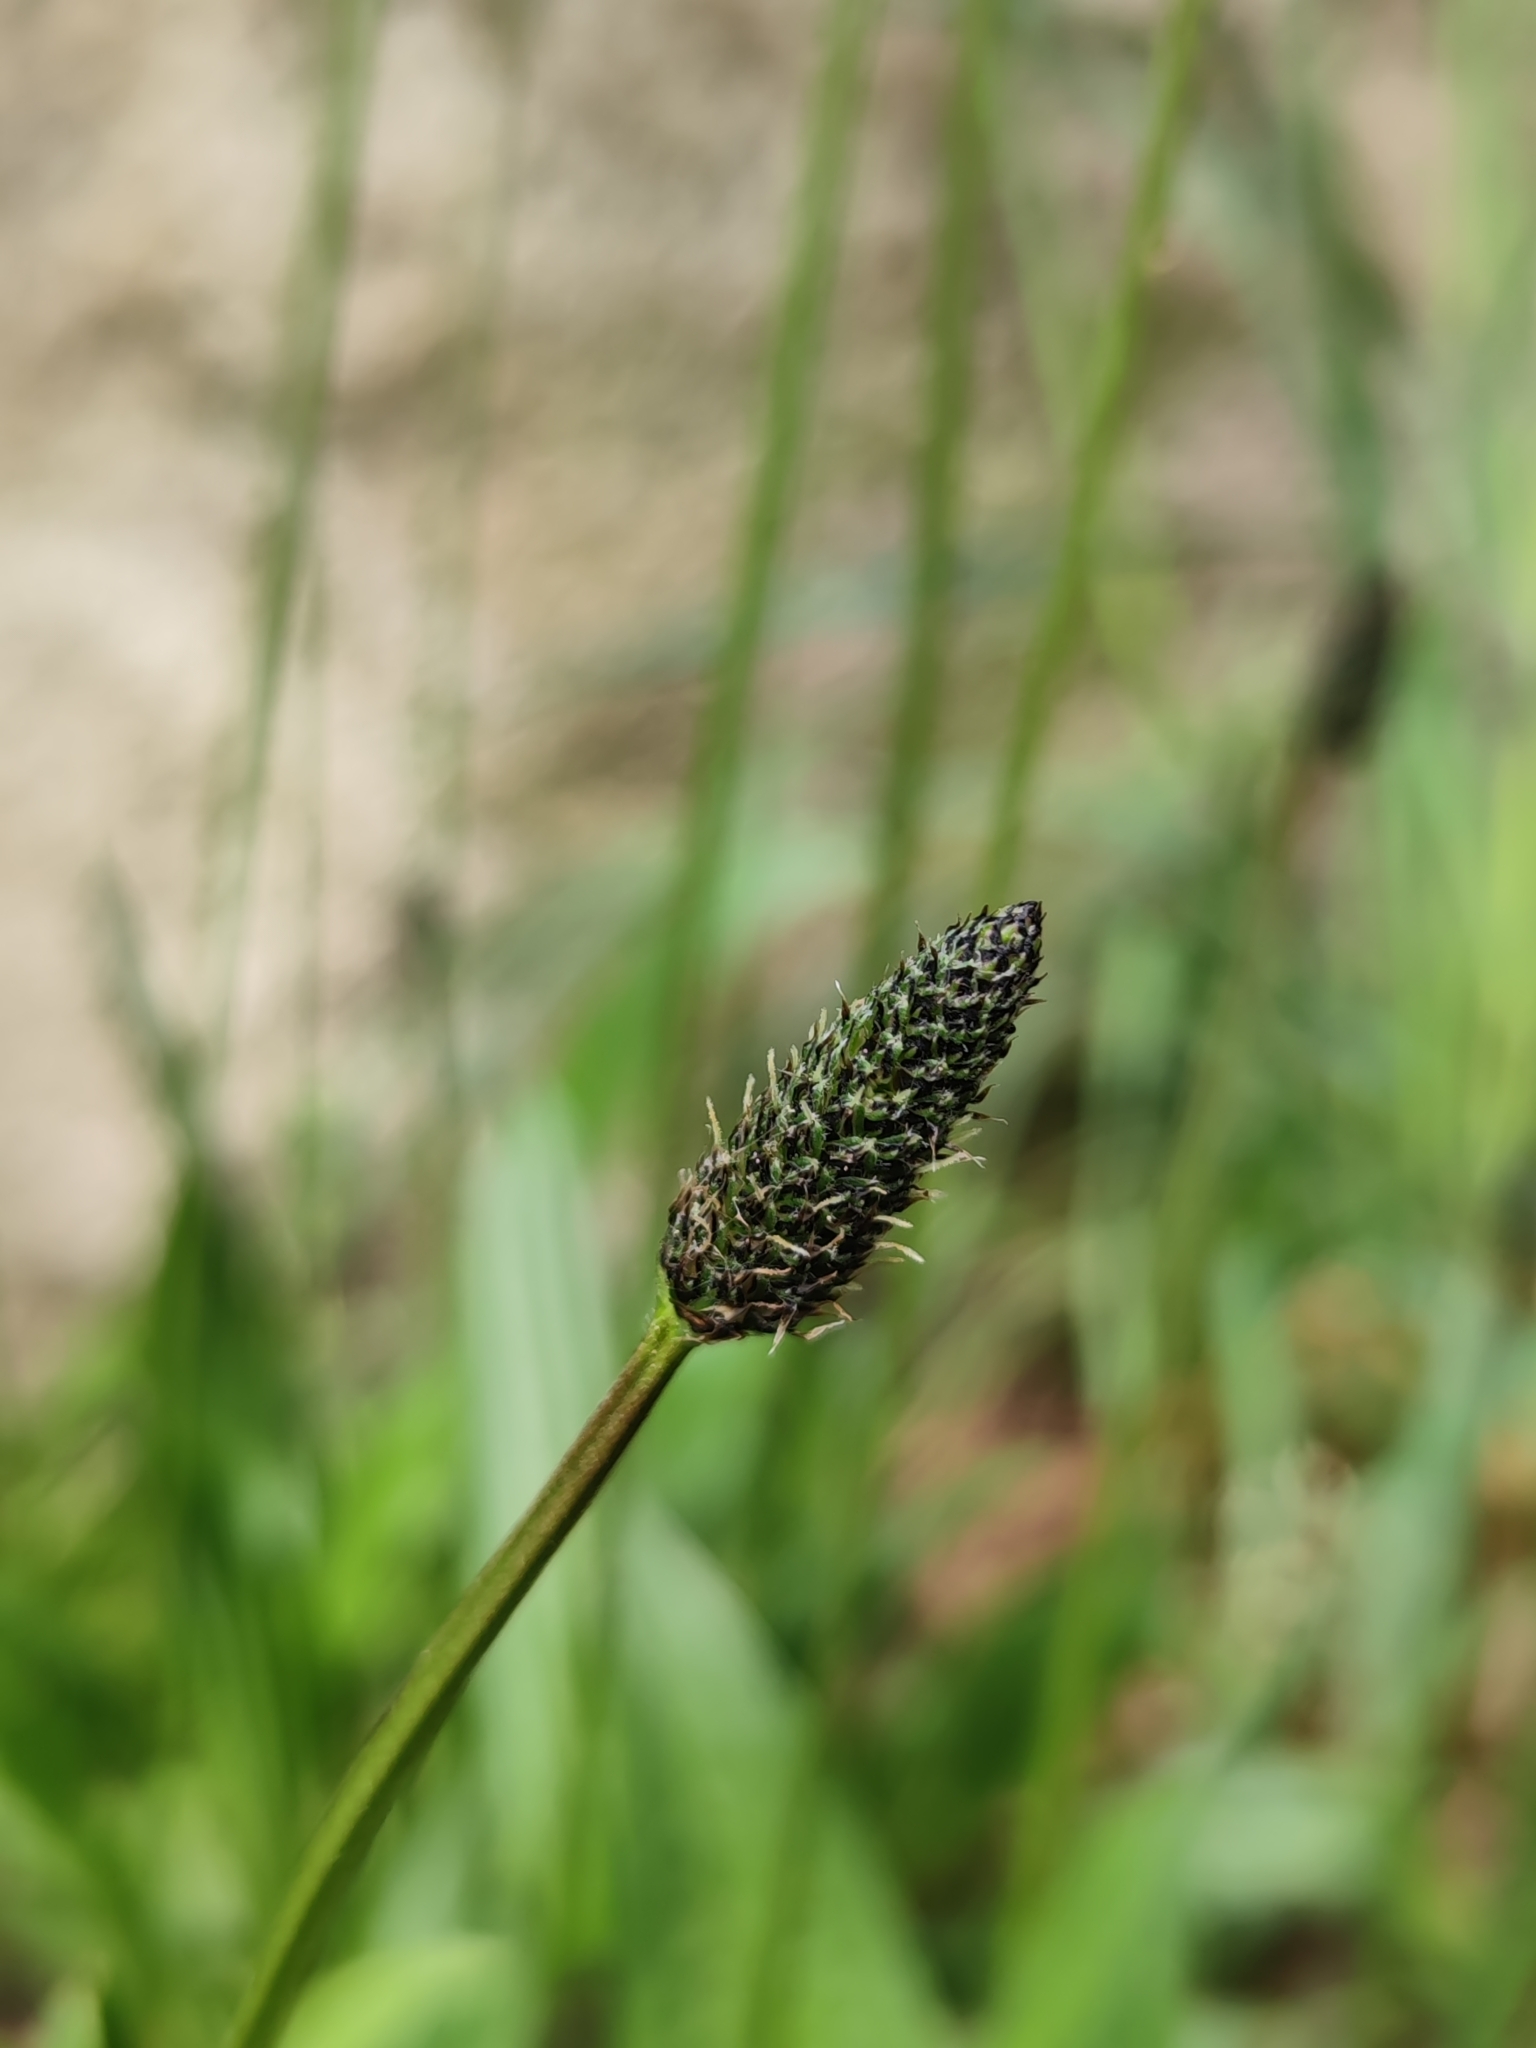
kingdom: Plantae
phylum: Tracheophyta
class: Magnoliopsida
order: Lamiales
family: Plantaginaceae
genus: Plantago
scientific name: Plantago lanceolata
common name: Ribwort plantain
